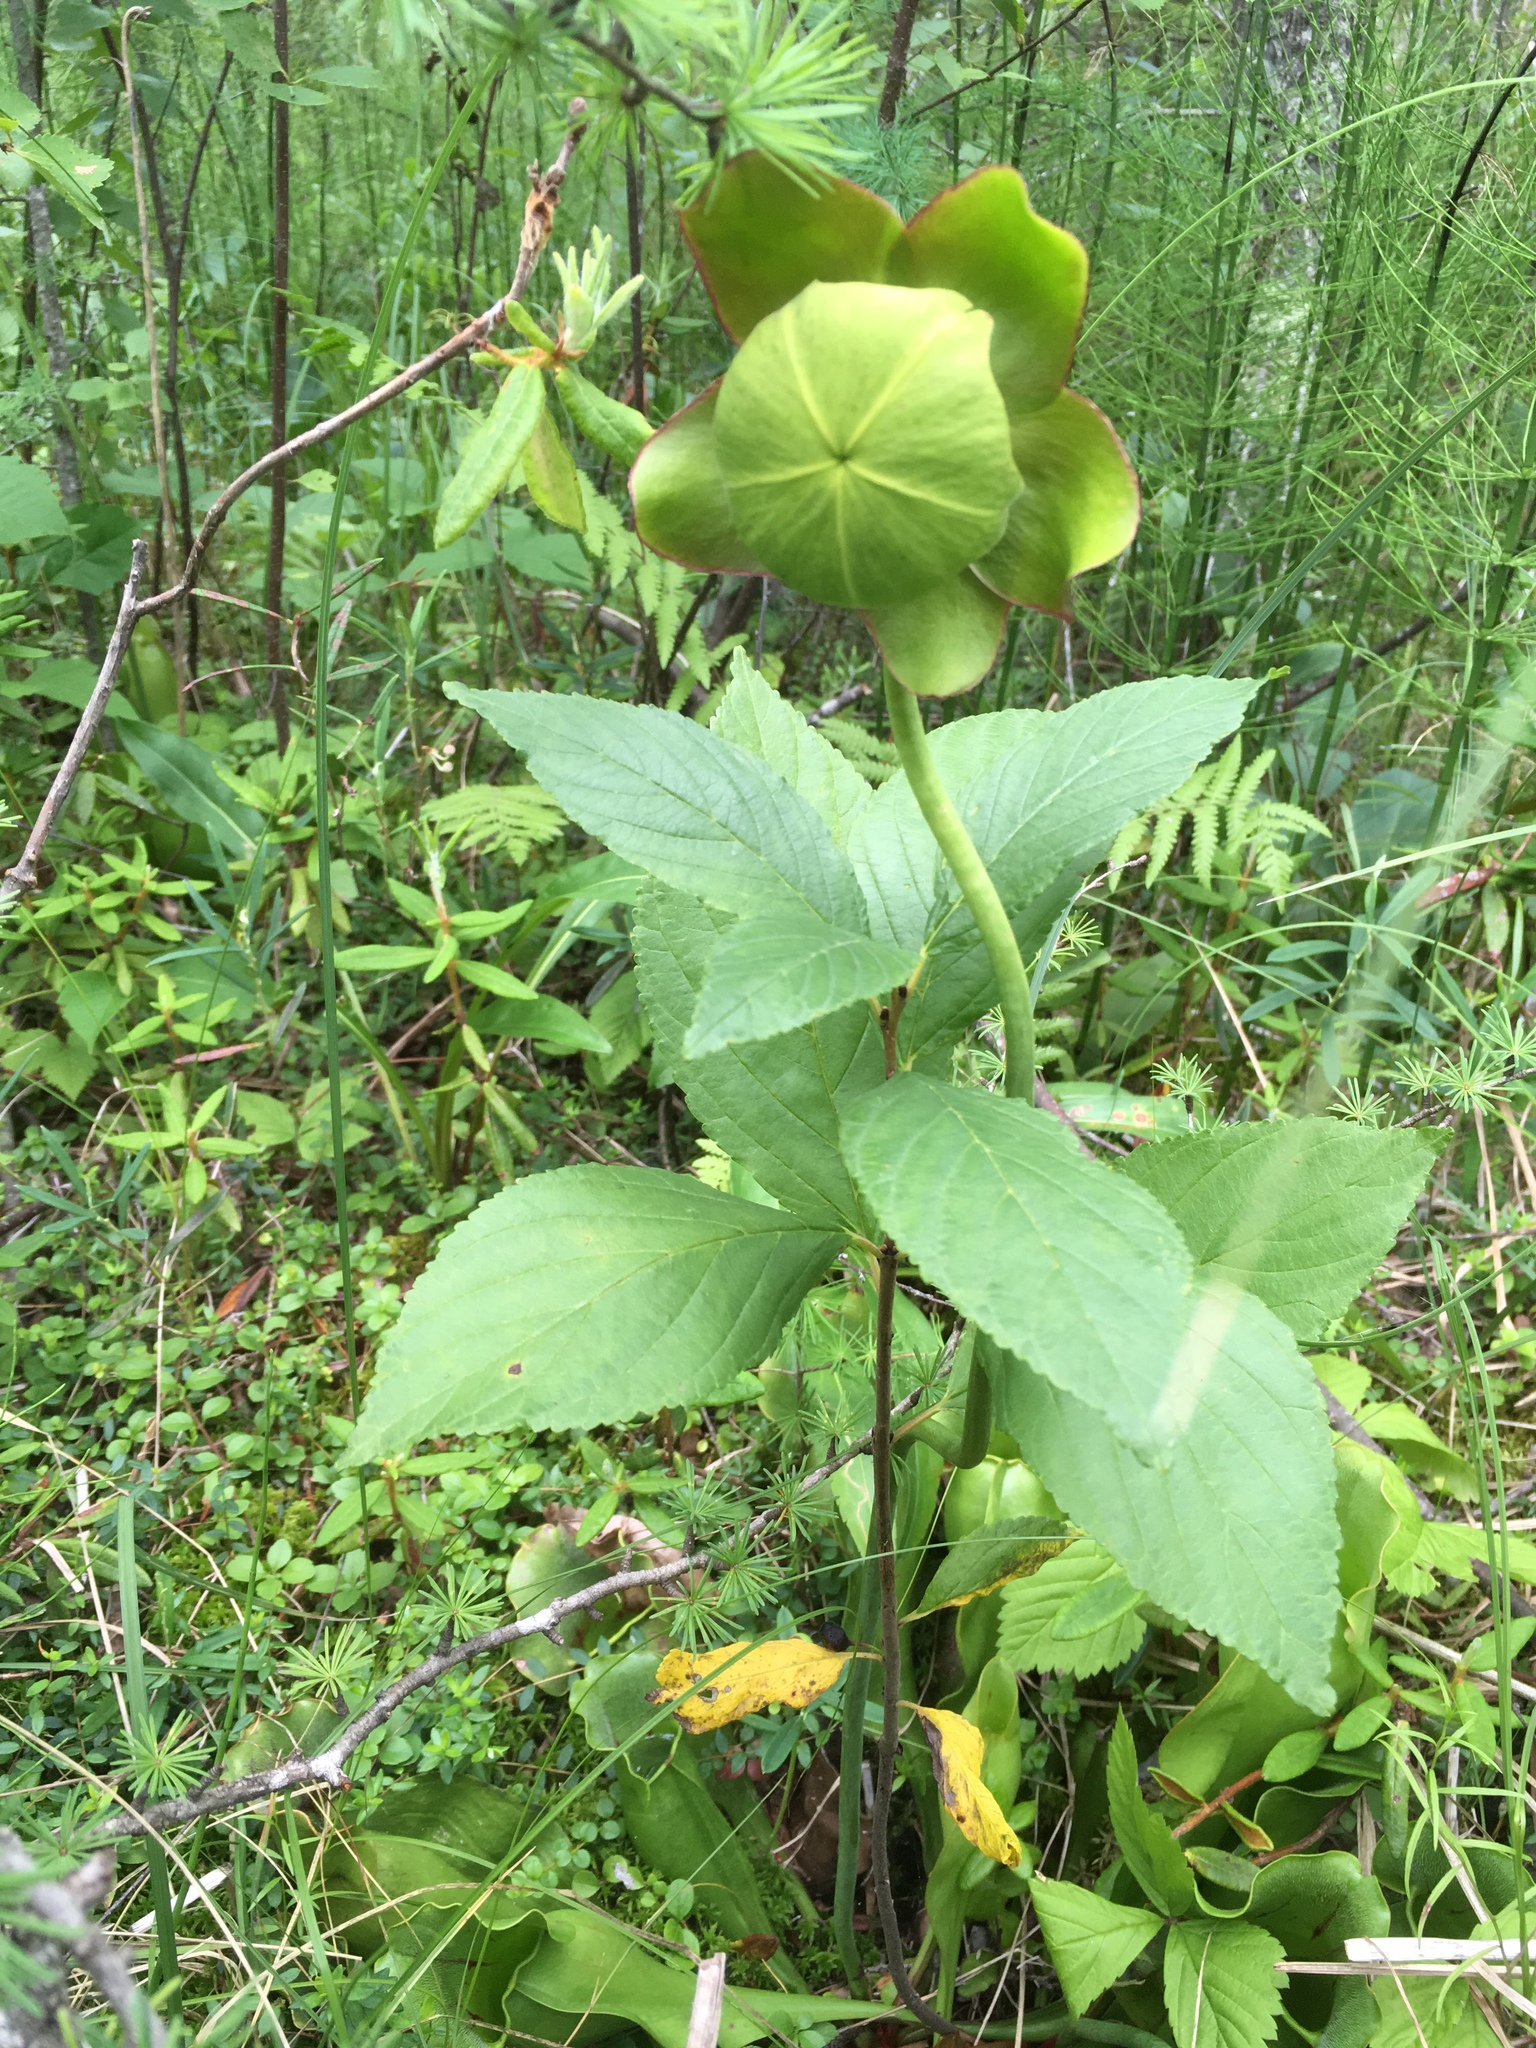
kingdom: Plantae
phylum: Tracheophyta
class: Magnoliopsida
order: Ericales
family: Sarraceniaceae
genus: Sarracenia
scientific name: Sarracenia purpurea
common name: Pitcherplant
